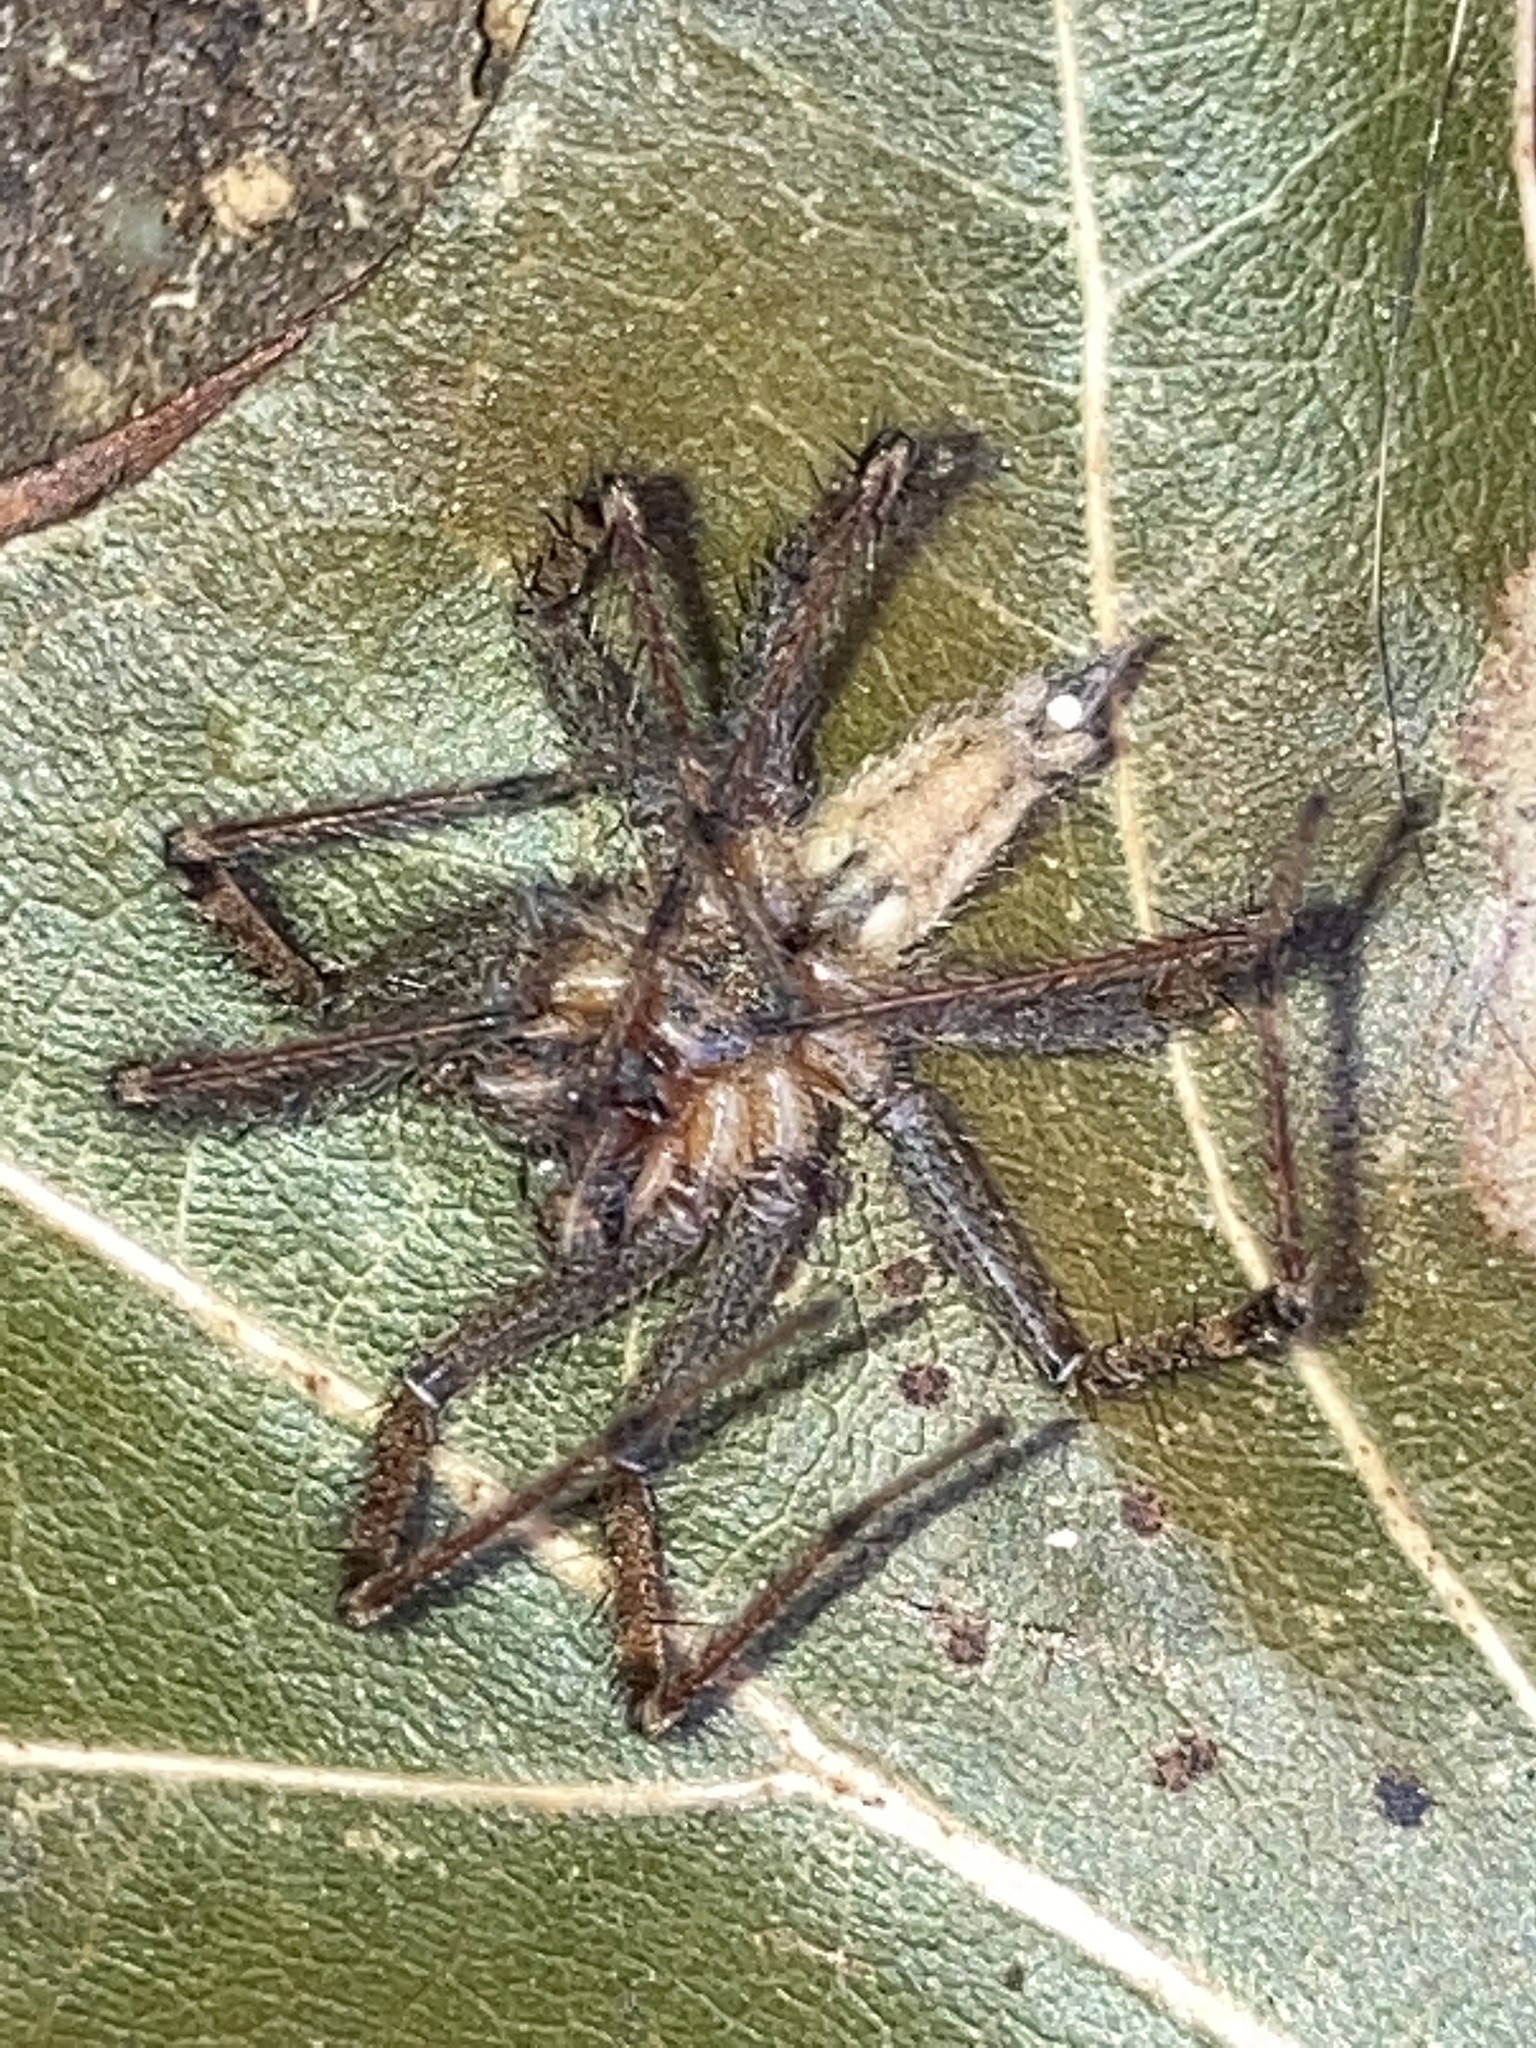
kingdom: Animalia
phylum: Arthropoda
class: Arachnida
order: Araneae
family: Agelenidae
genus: Agelenopsis
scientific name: Agelenopsis
